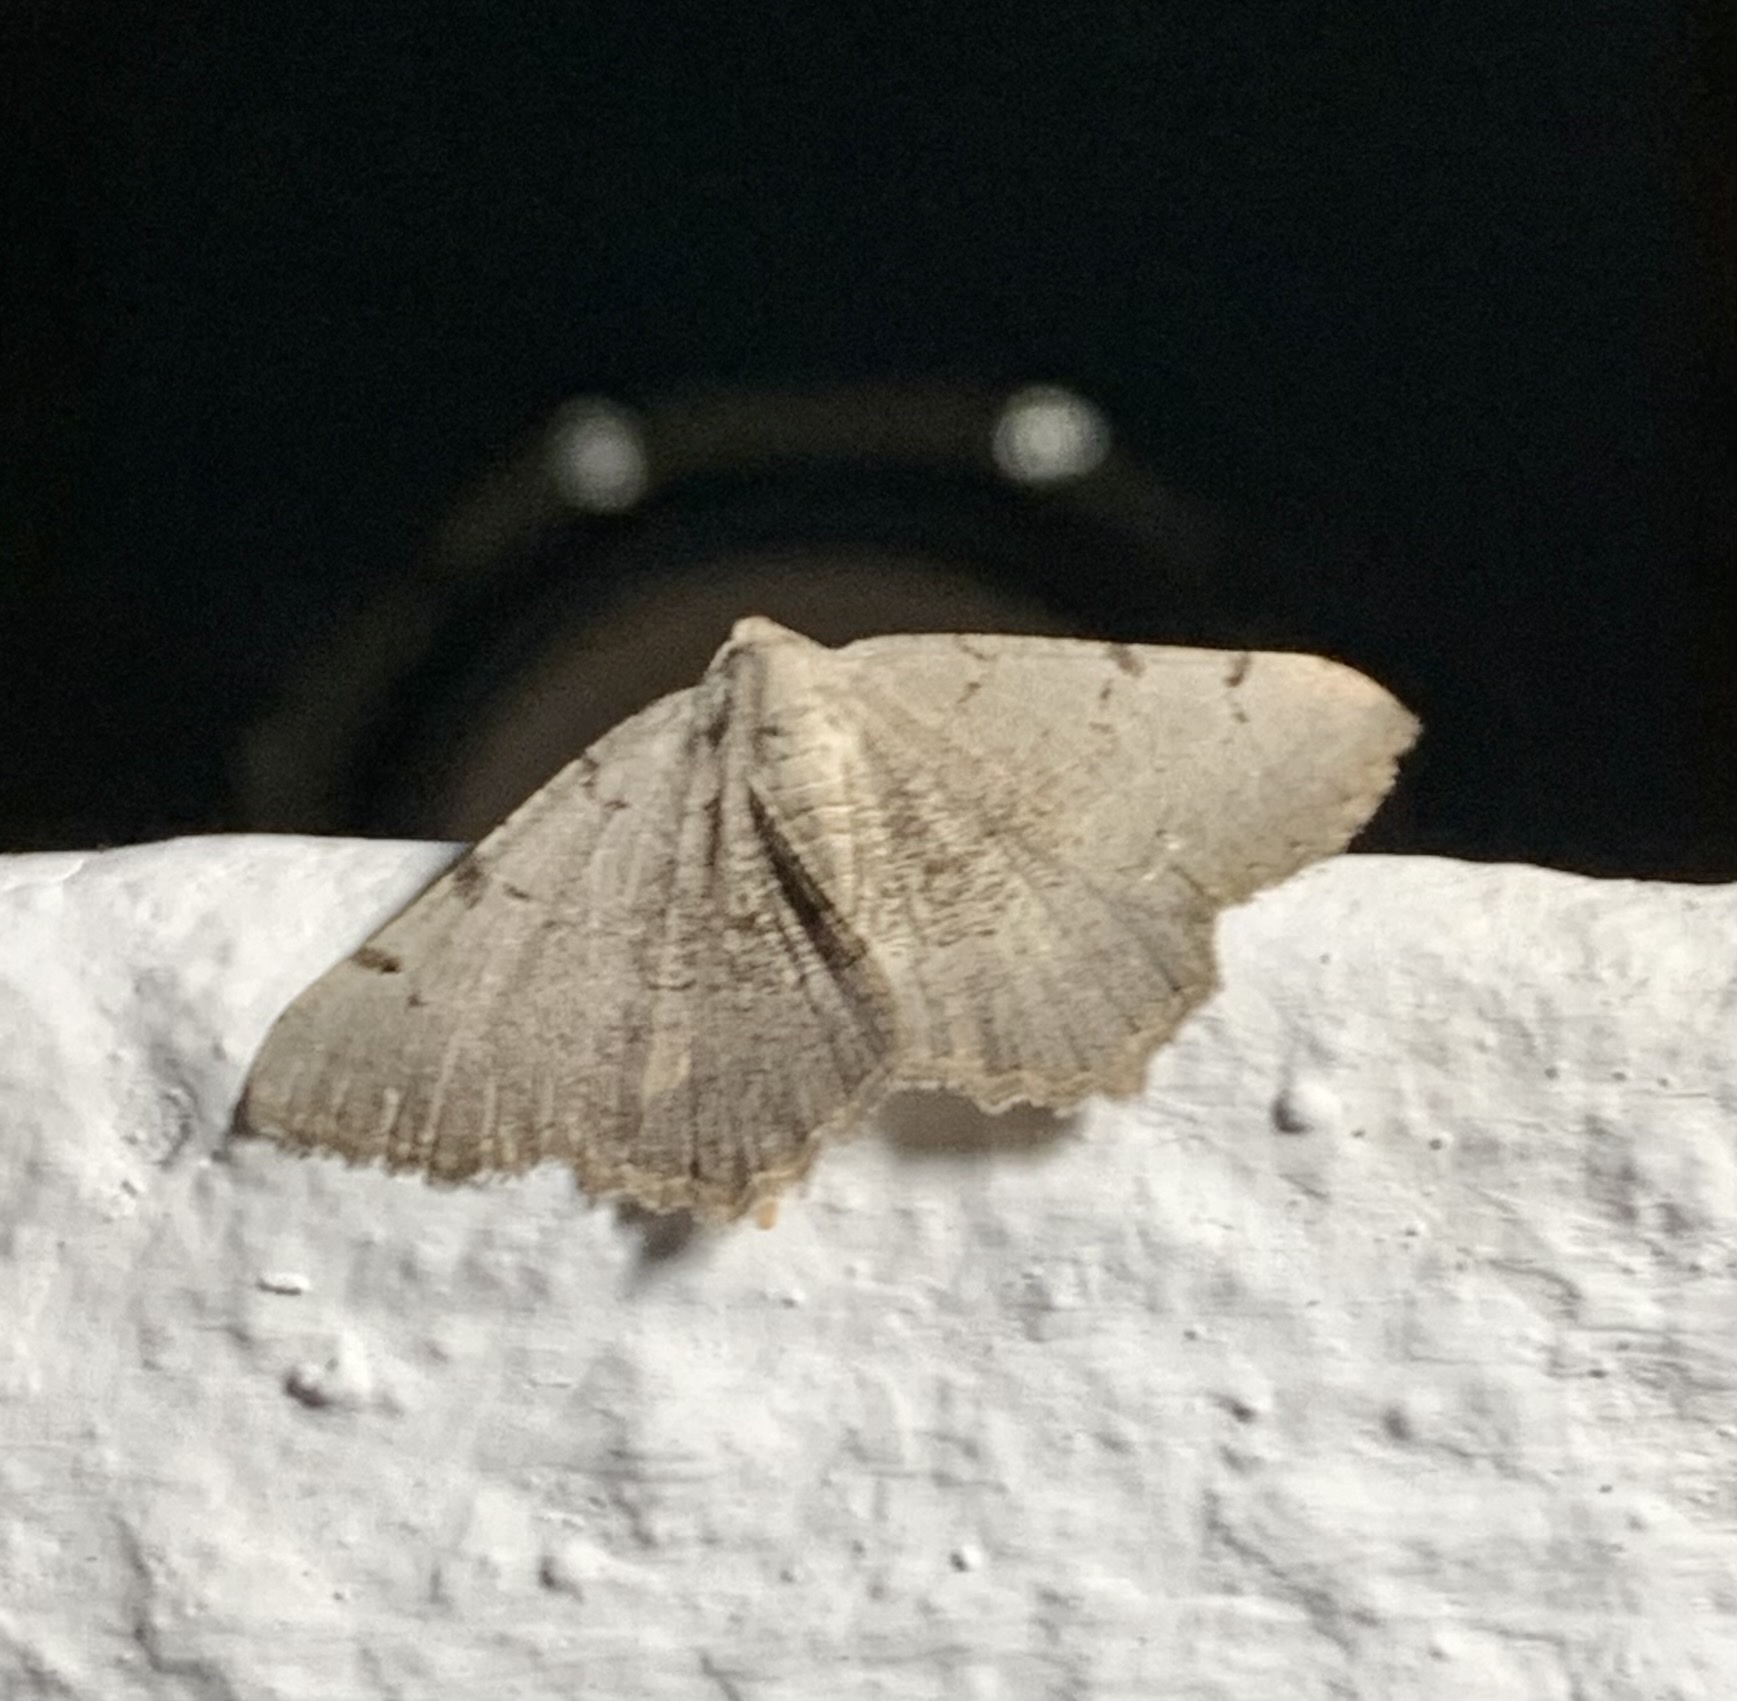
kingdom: Animalia
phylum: Arthropoda
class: Insecta
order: Lepidoptera
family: Geometridae
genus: Neognopharmia
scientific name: Neognopharmia stevenaria
